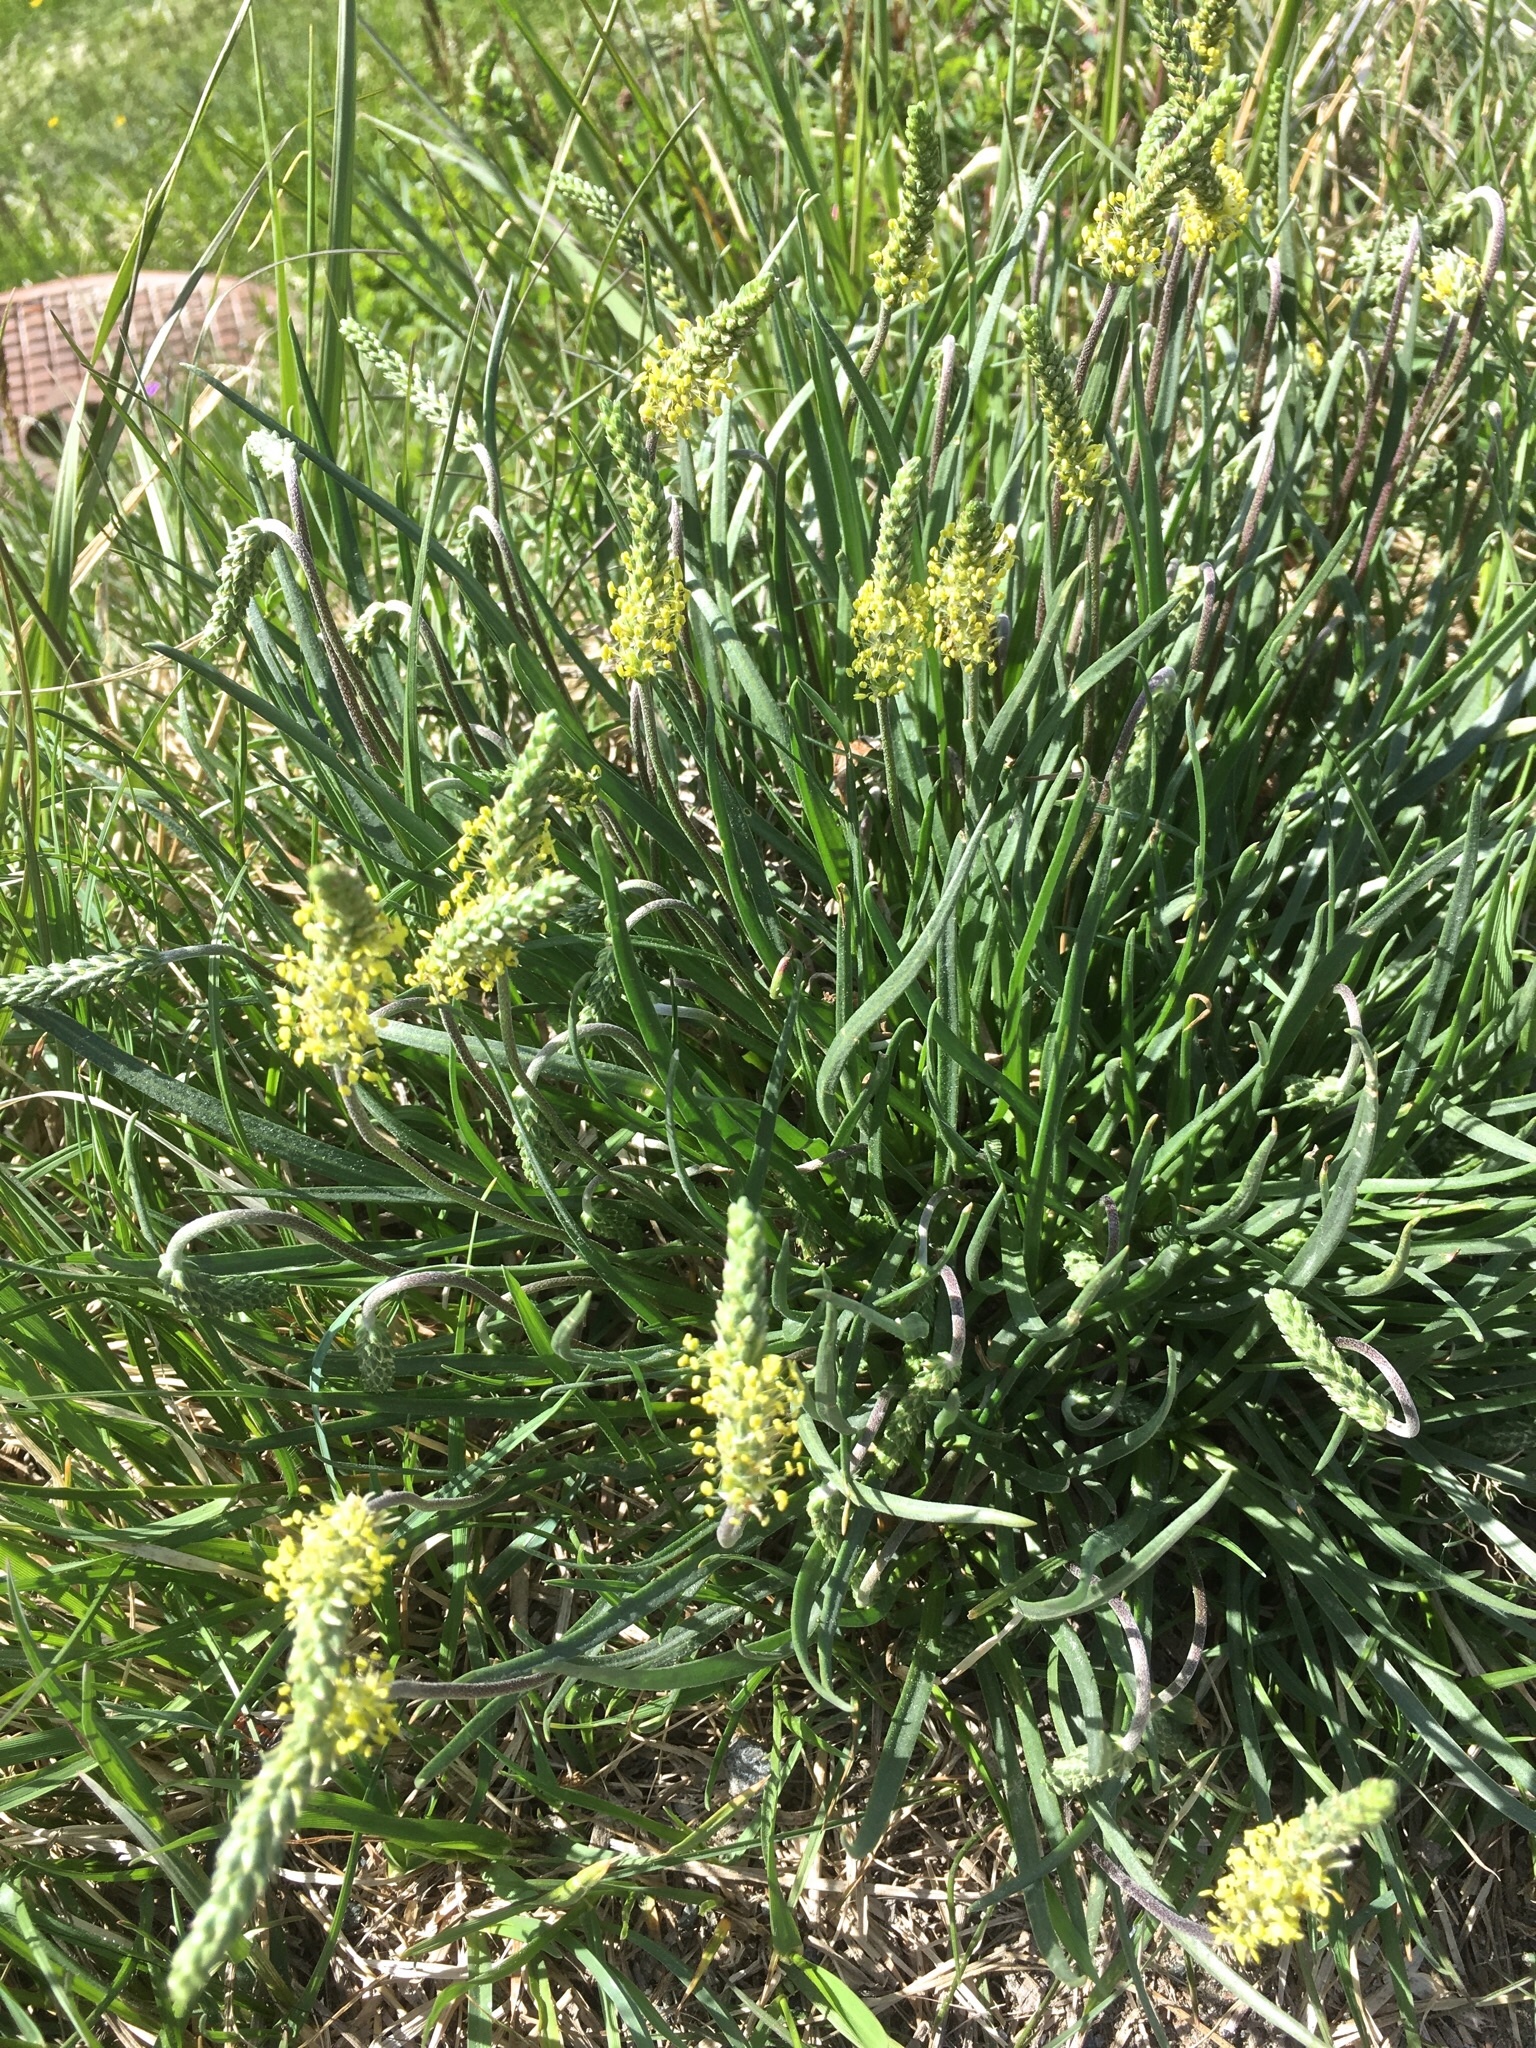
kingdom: Plantae
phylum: Tracheophyta
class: Magnoliopsida
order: Lamiales
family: Plantaginaceae
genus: Plantago
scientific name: Plantago maritima
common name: Sea plantain
